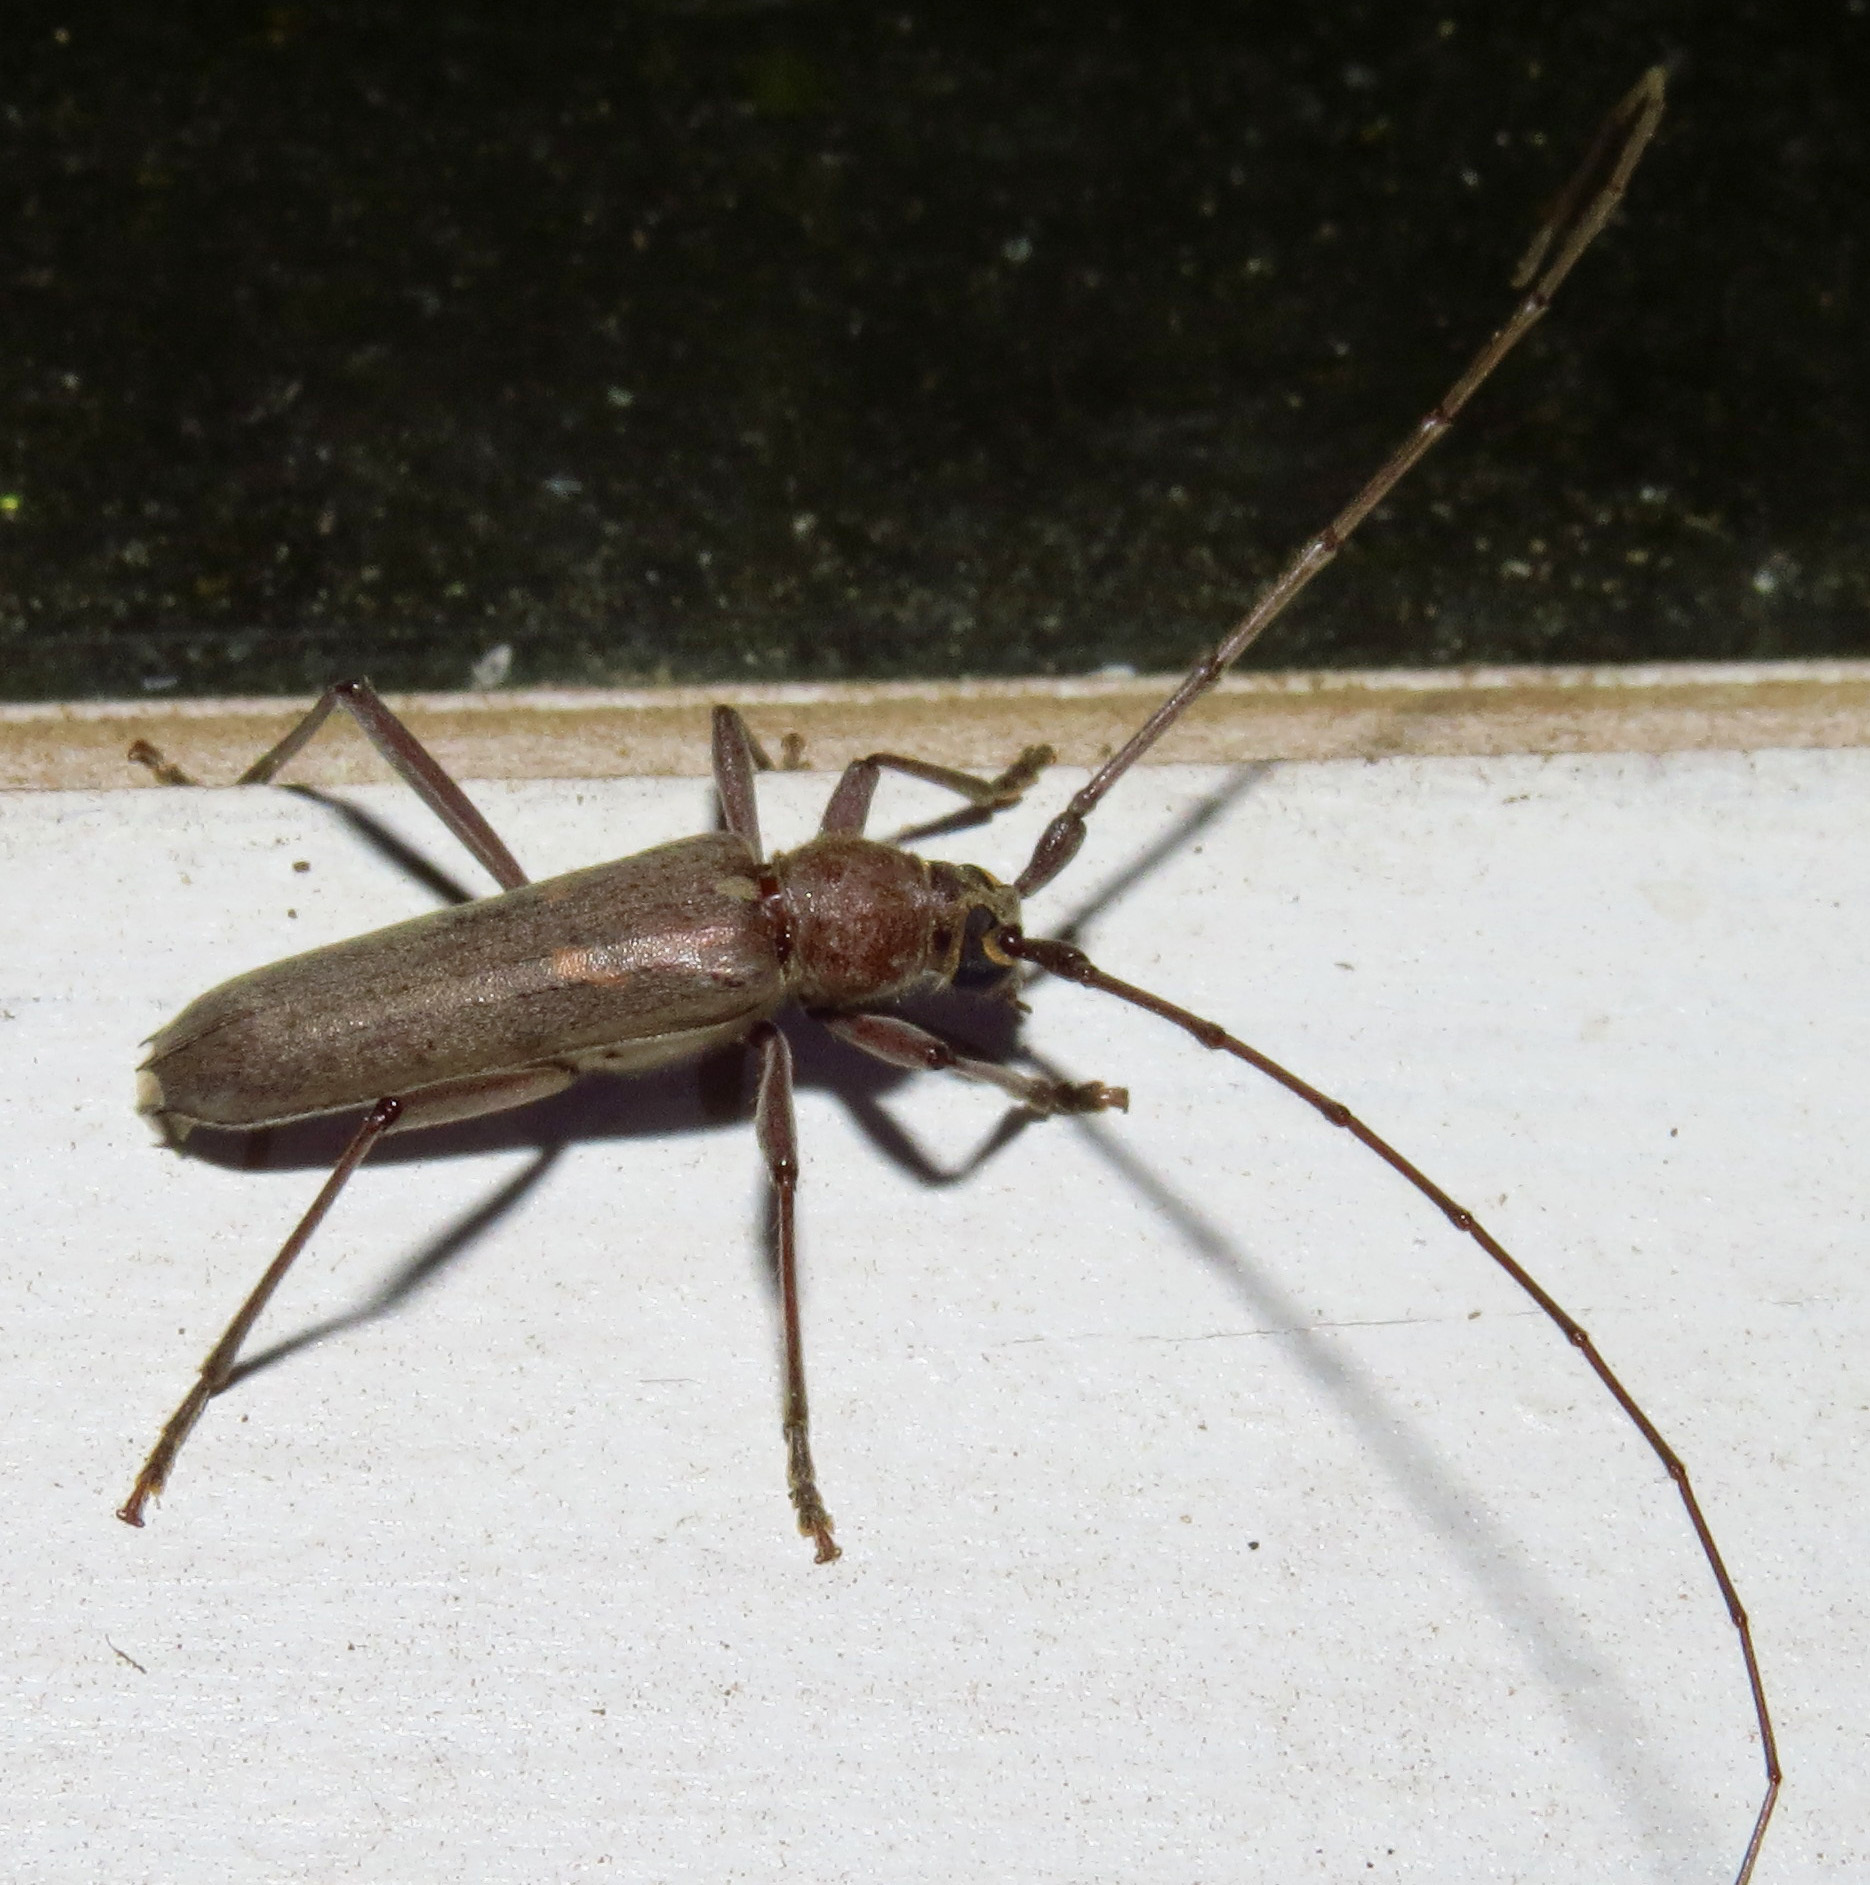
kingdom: Animalia
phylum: Arthropoda
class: Insecta
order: Coleoptera
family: Cerambycidae
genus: Knulliana
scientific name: Knulliana cincta
